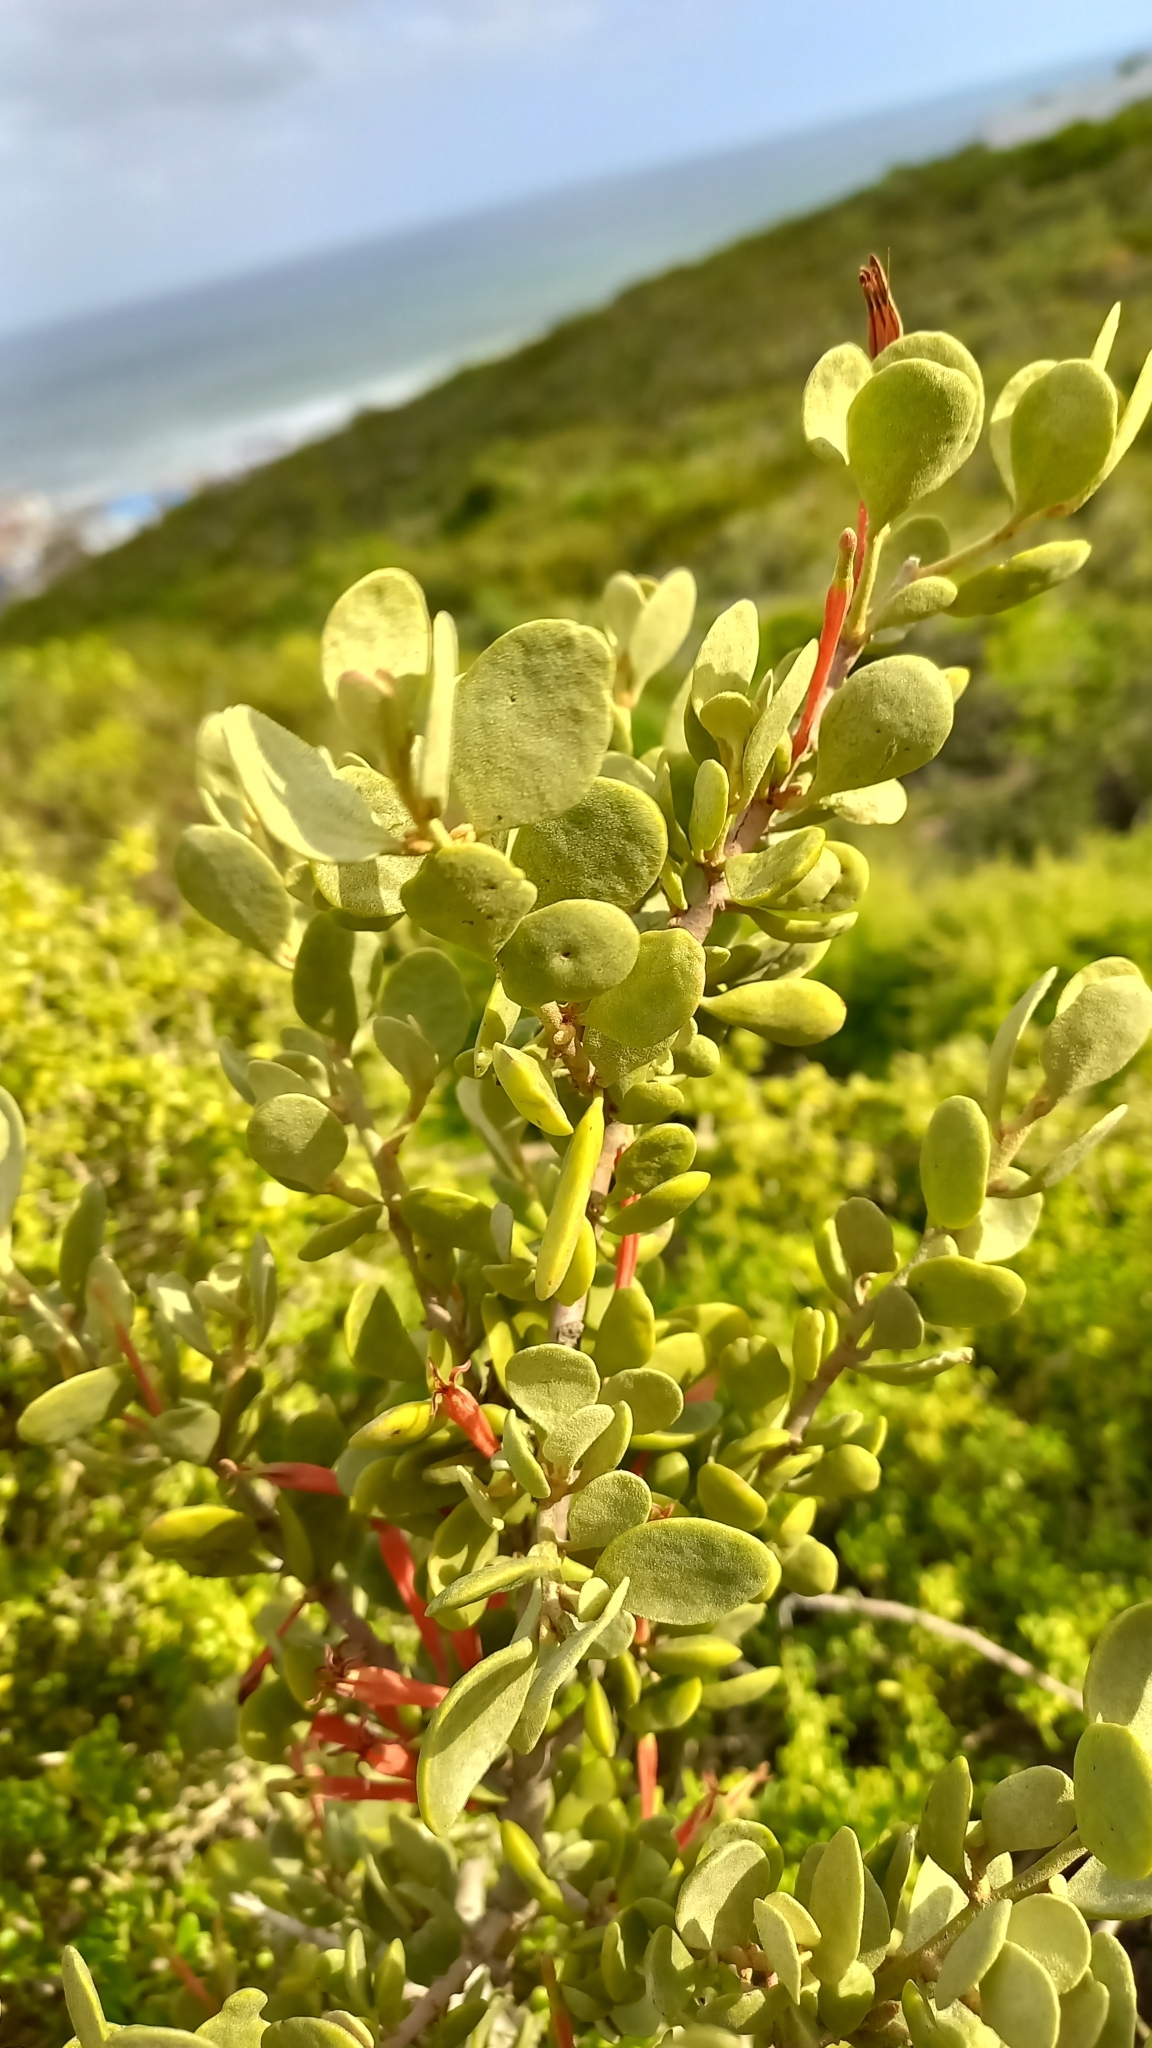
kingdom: Plantae
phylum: Tracheophyta
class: Magnoliopsida
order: Santalales
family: Loranthaceae
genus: Septulina
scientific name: Septulina glauca
